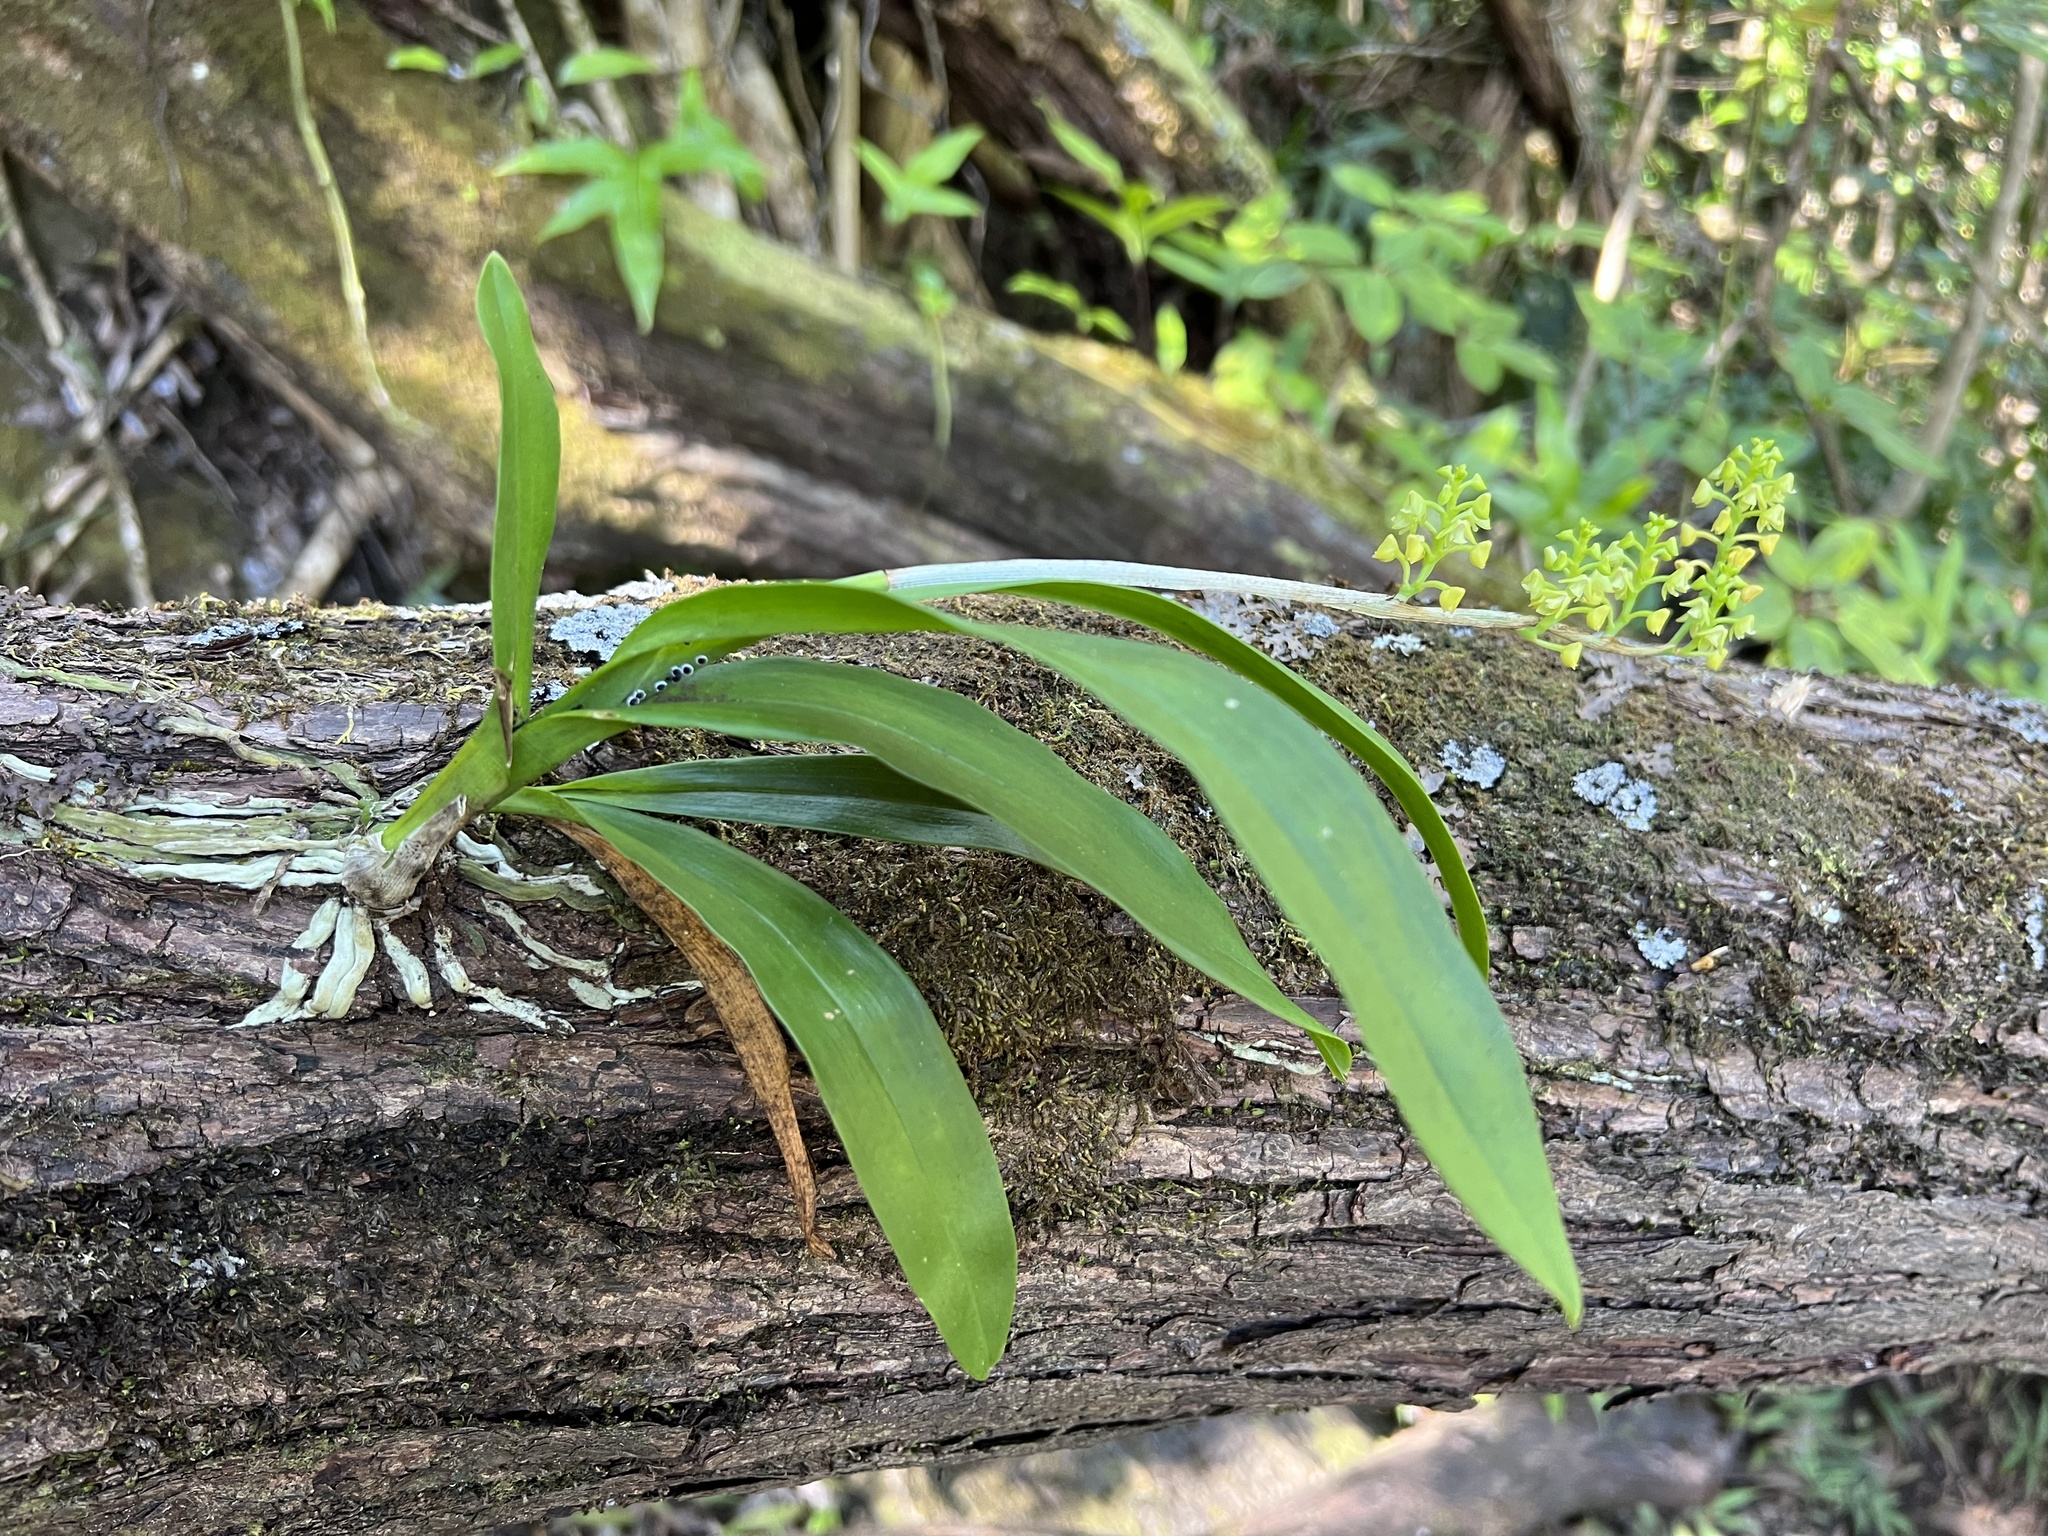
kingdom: Plantae
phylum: Tracheophyta
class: Liliopsida
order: Asparagales
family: Orchidaceae
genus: Polystachya
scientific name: Polystachya concreta
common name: Greater yellowspike orchid
